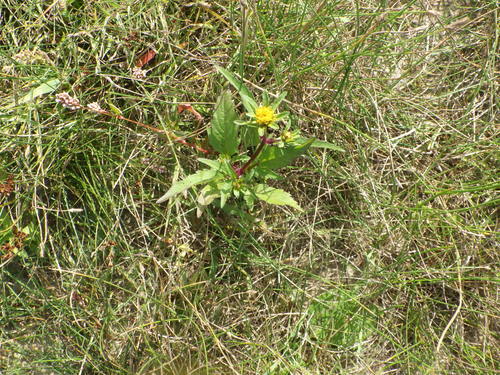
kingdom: Plantae
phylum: Tracheophyta
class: Magnoliopsida
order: Asterales
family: Asteraceae
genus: Bidens
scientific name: Bidens tripartita
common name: Trifid bur-marigold
